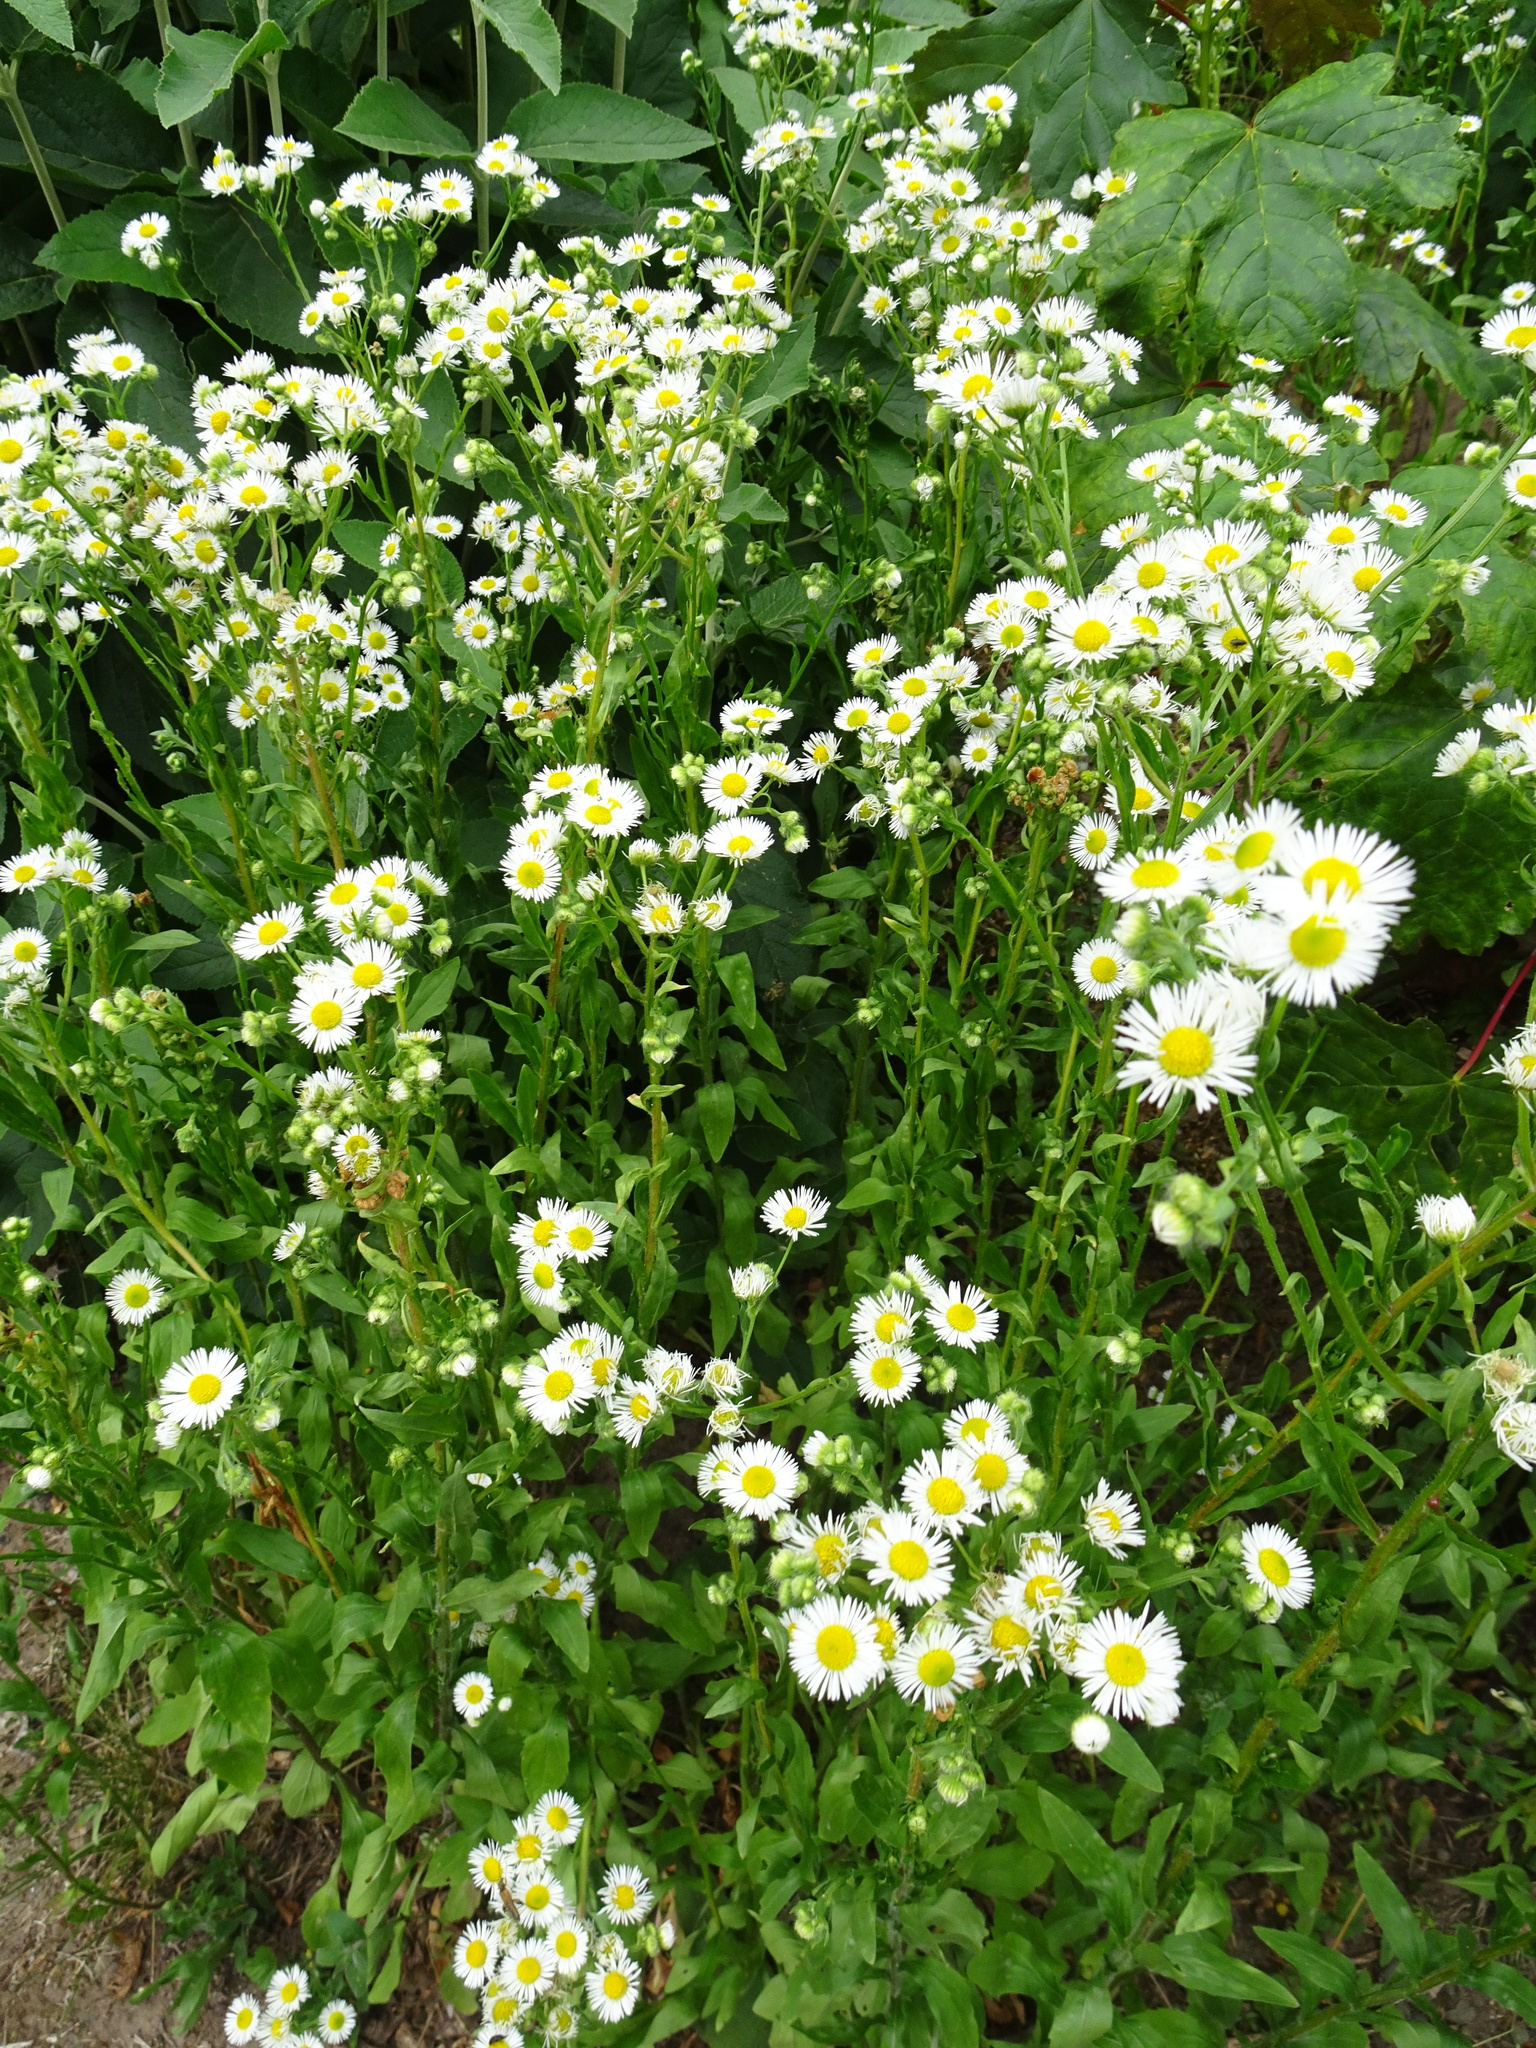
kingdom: Plantae
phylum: Tracheophyta
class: Magnoliopsida
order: Asterales
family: Asteraceae
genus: Erigeron
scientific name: Erigeron annuus
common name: Tall fleabane
